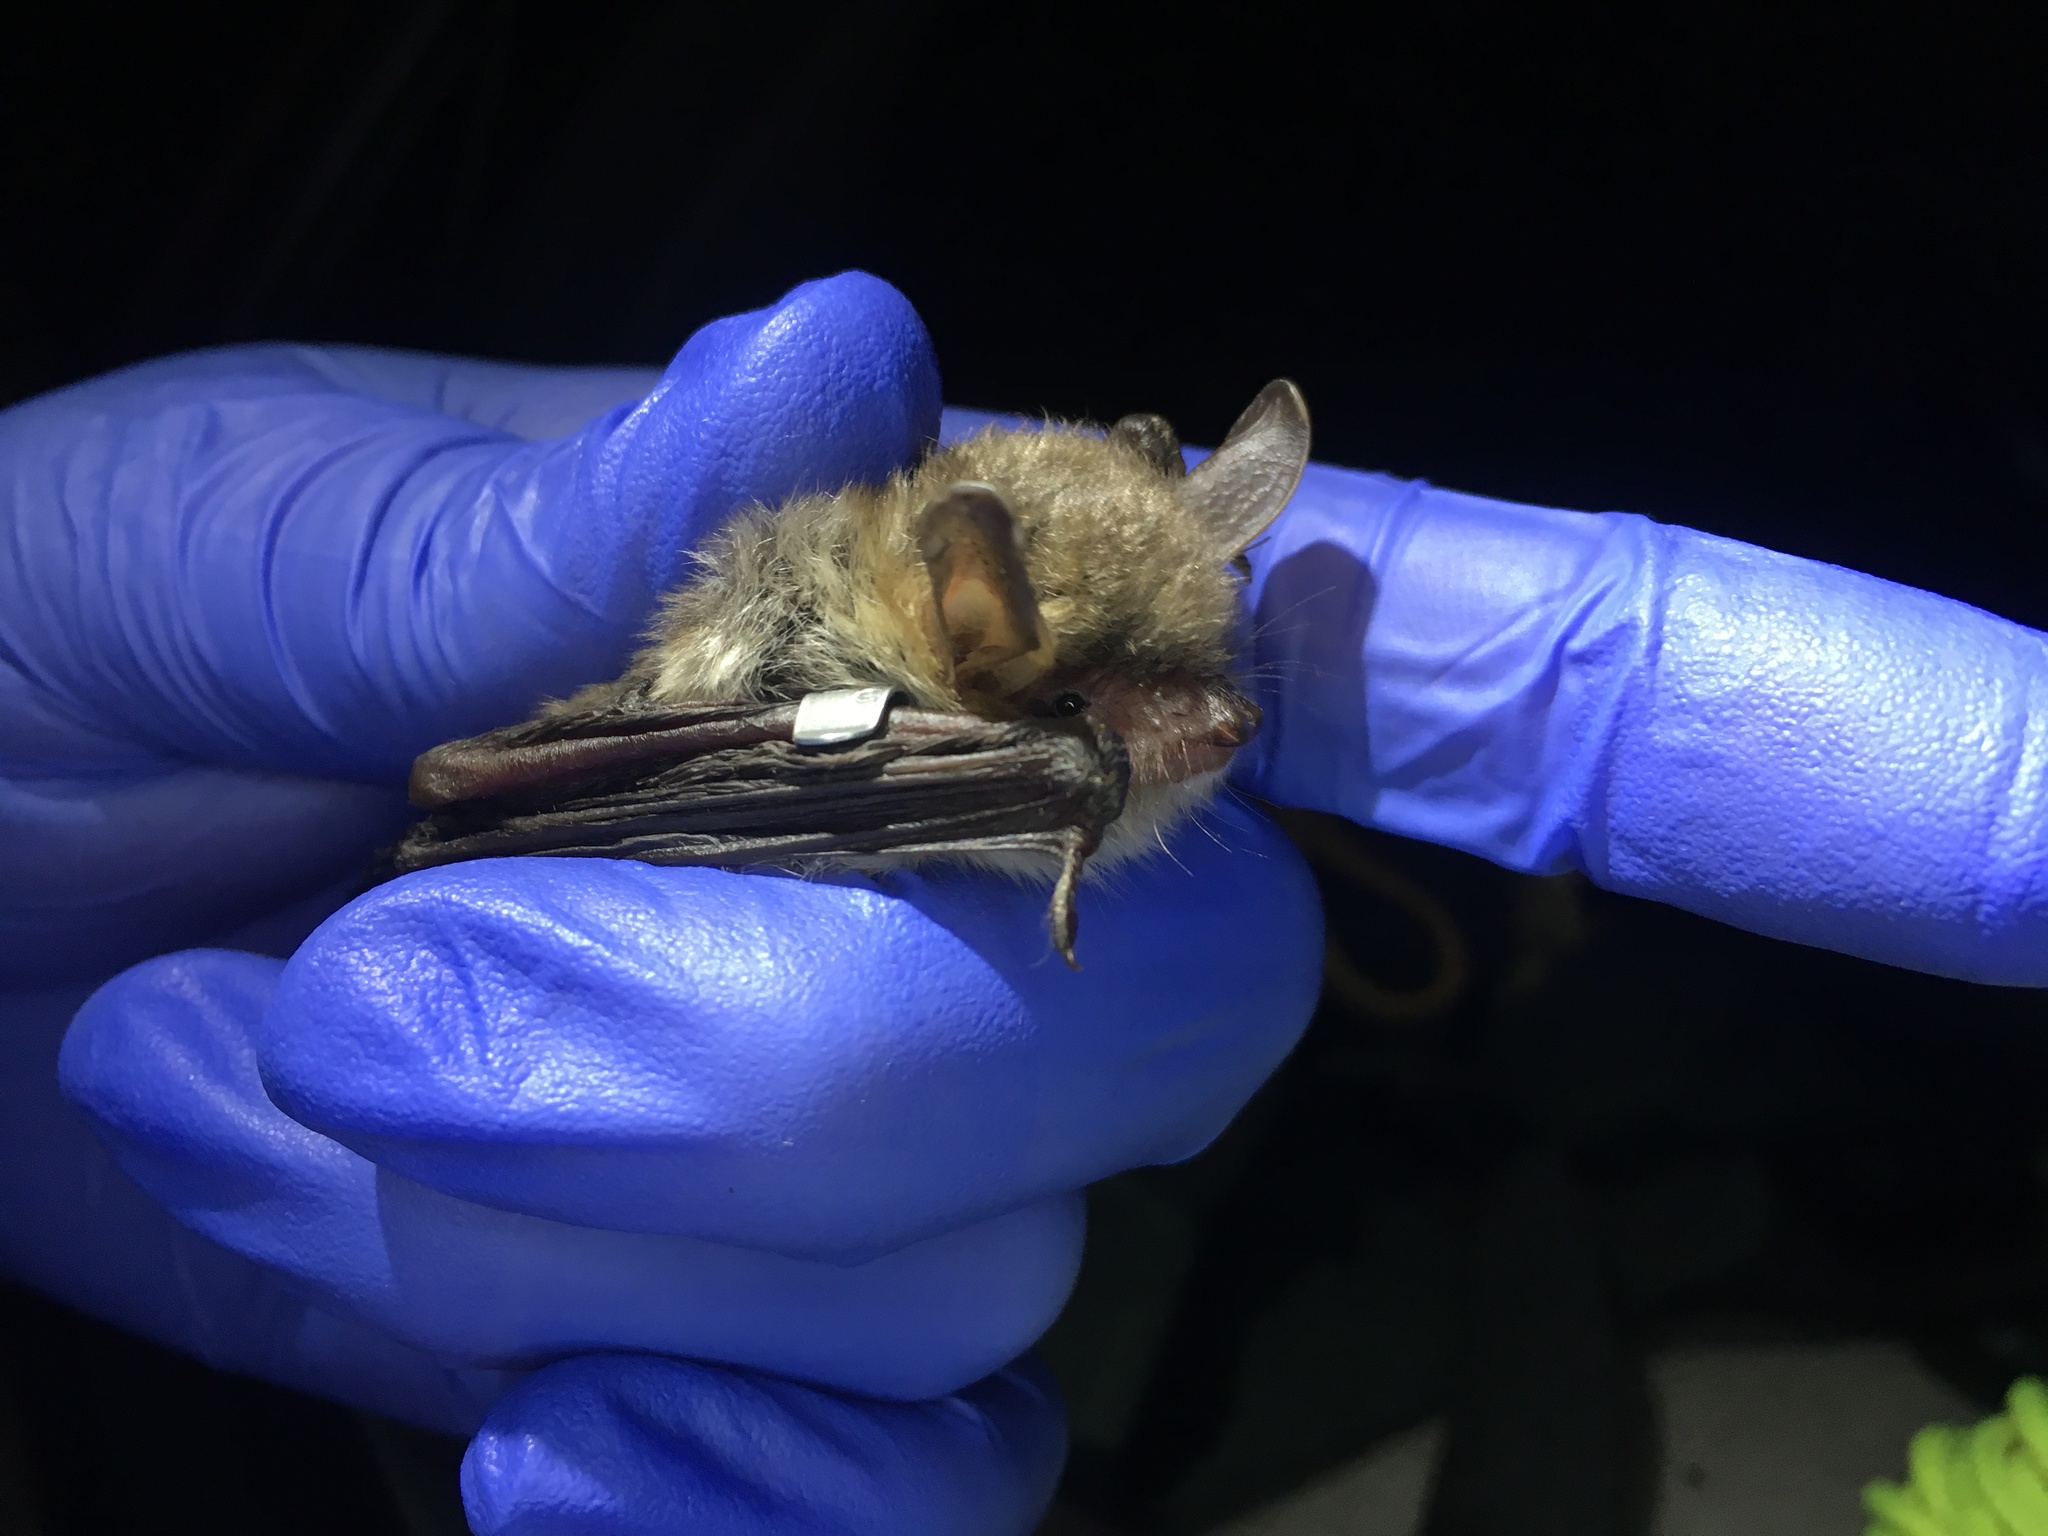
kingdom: Animalia
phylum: Chordata
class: Mammalia
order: Chiroptera
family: Vespertilionidae
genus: Myotis
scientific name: Myotis nattereri
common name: Natterer's bat
